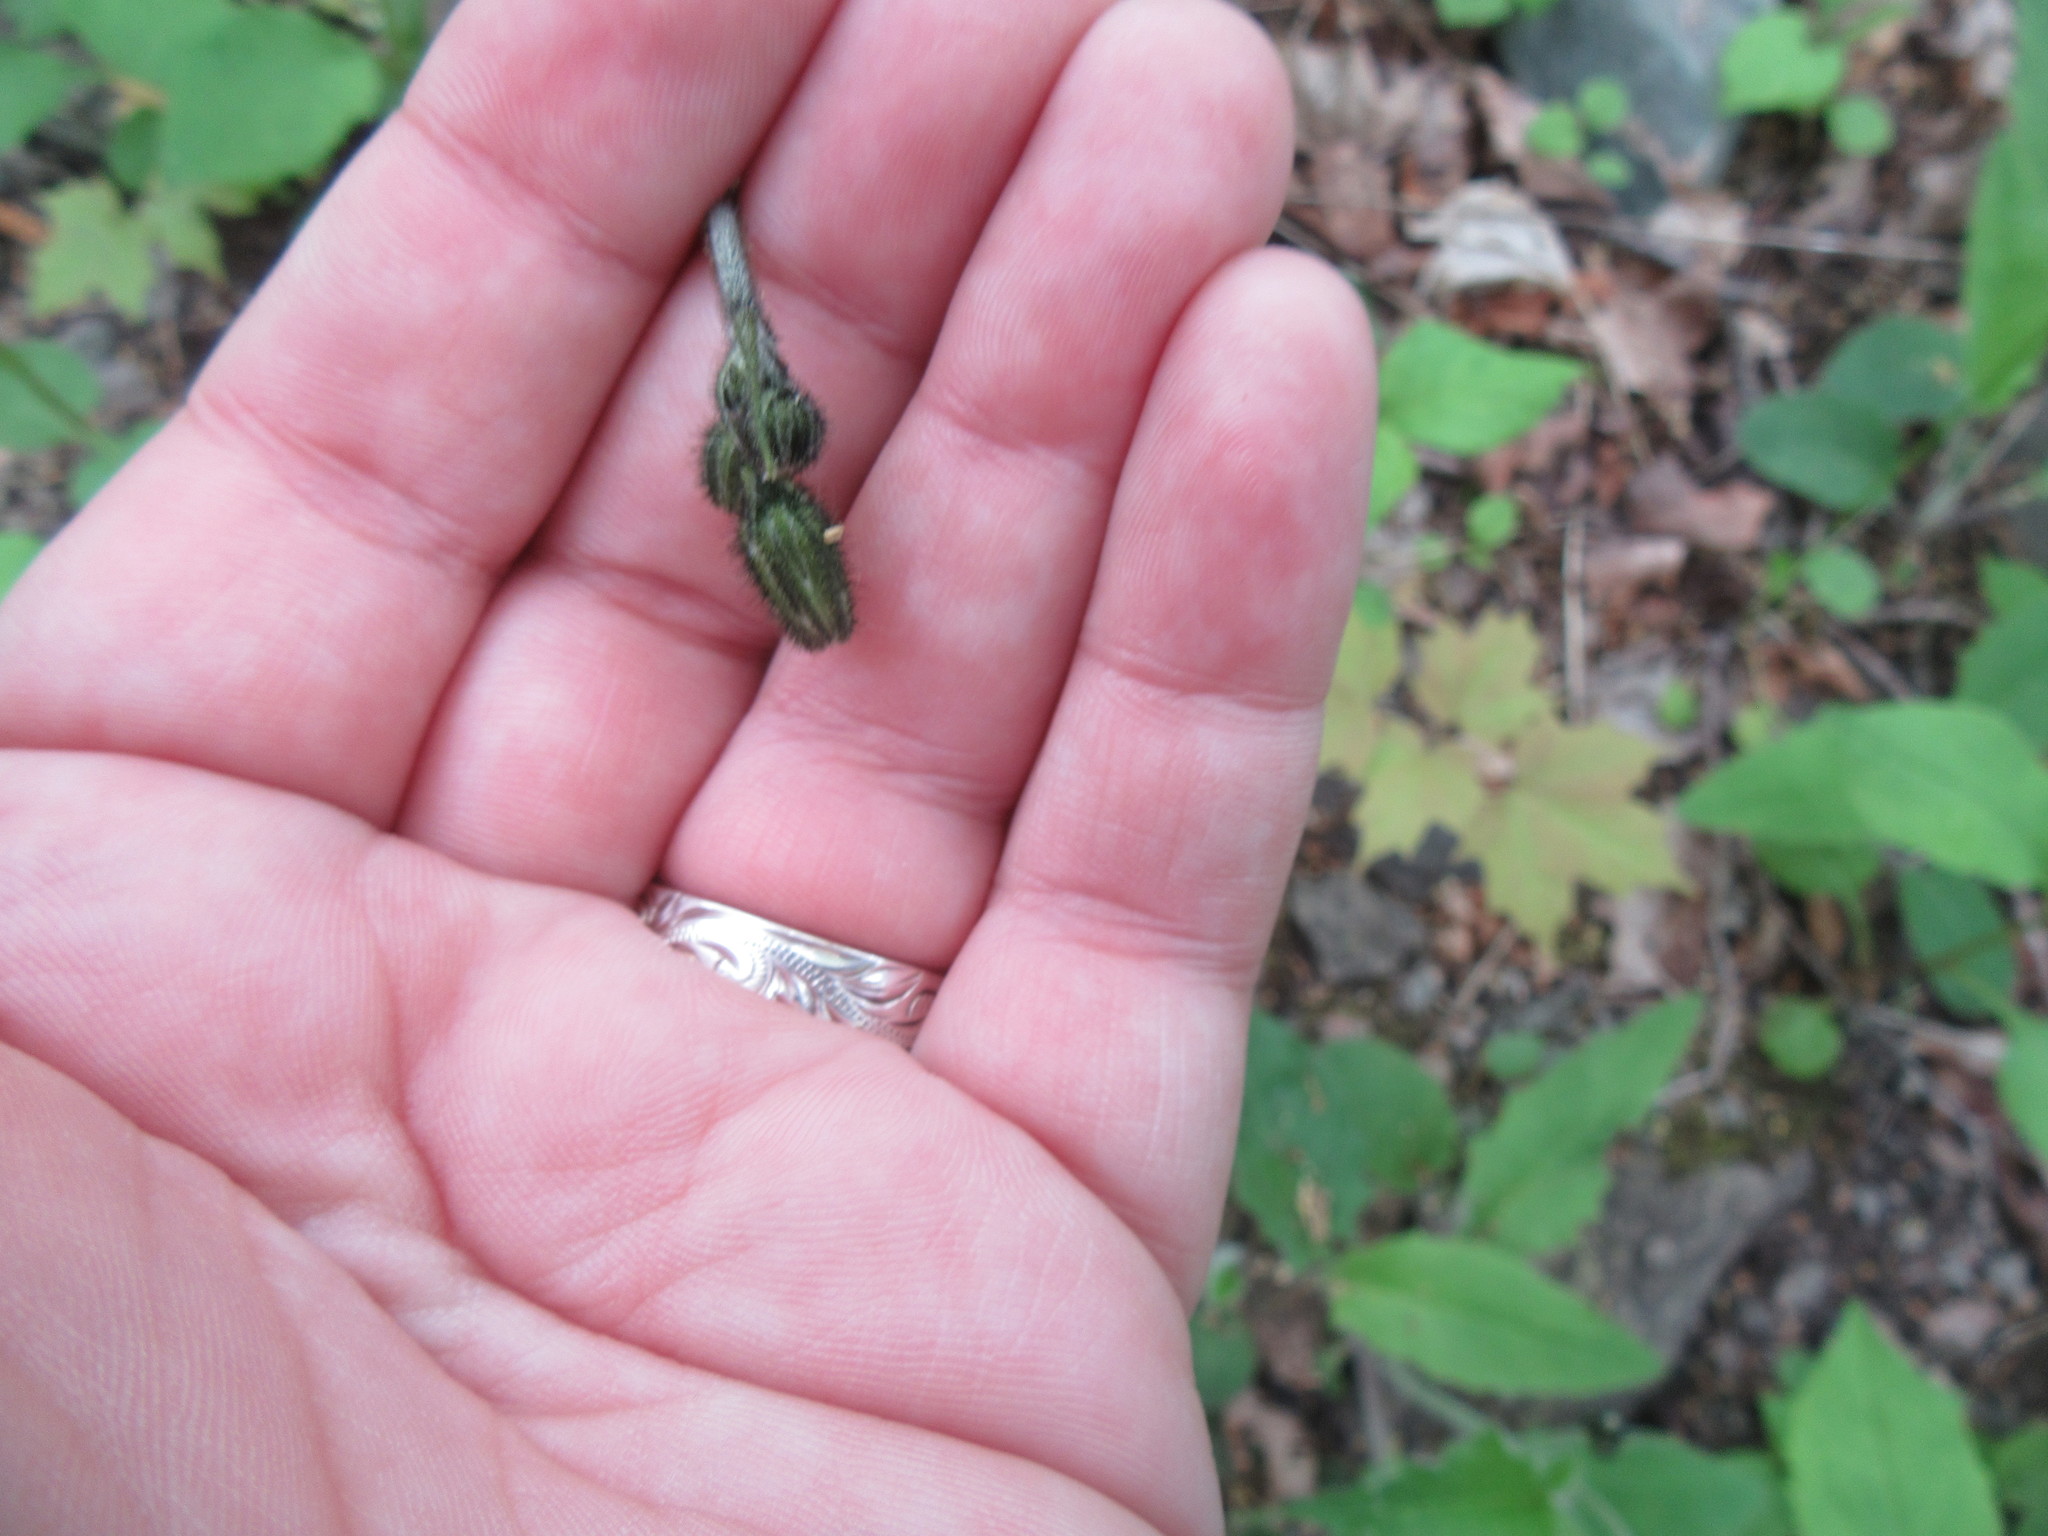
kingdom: Plantae
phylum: Tracheophyta
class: Magnoliopsida
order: Asterales
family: Asteraceae
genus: Hieracium
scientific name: Hieracium murorum
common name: Wall hawkweed
